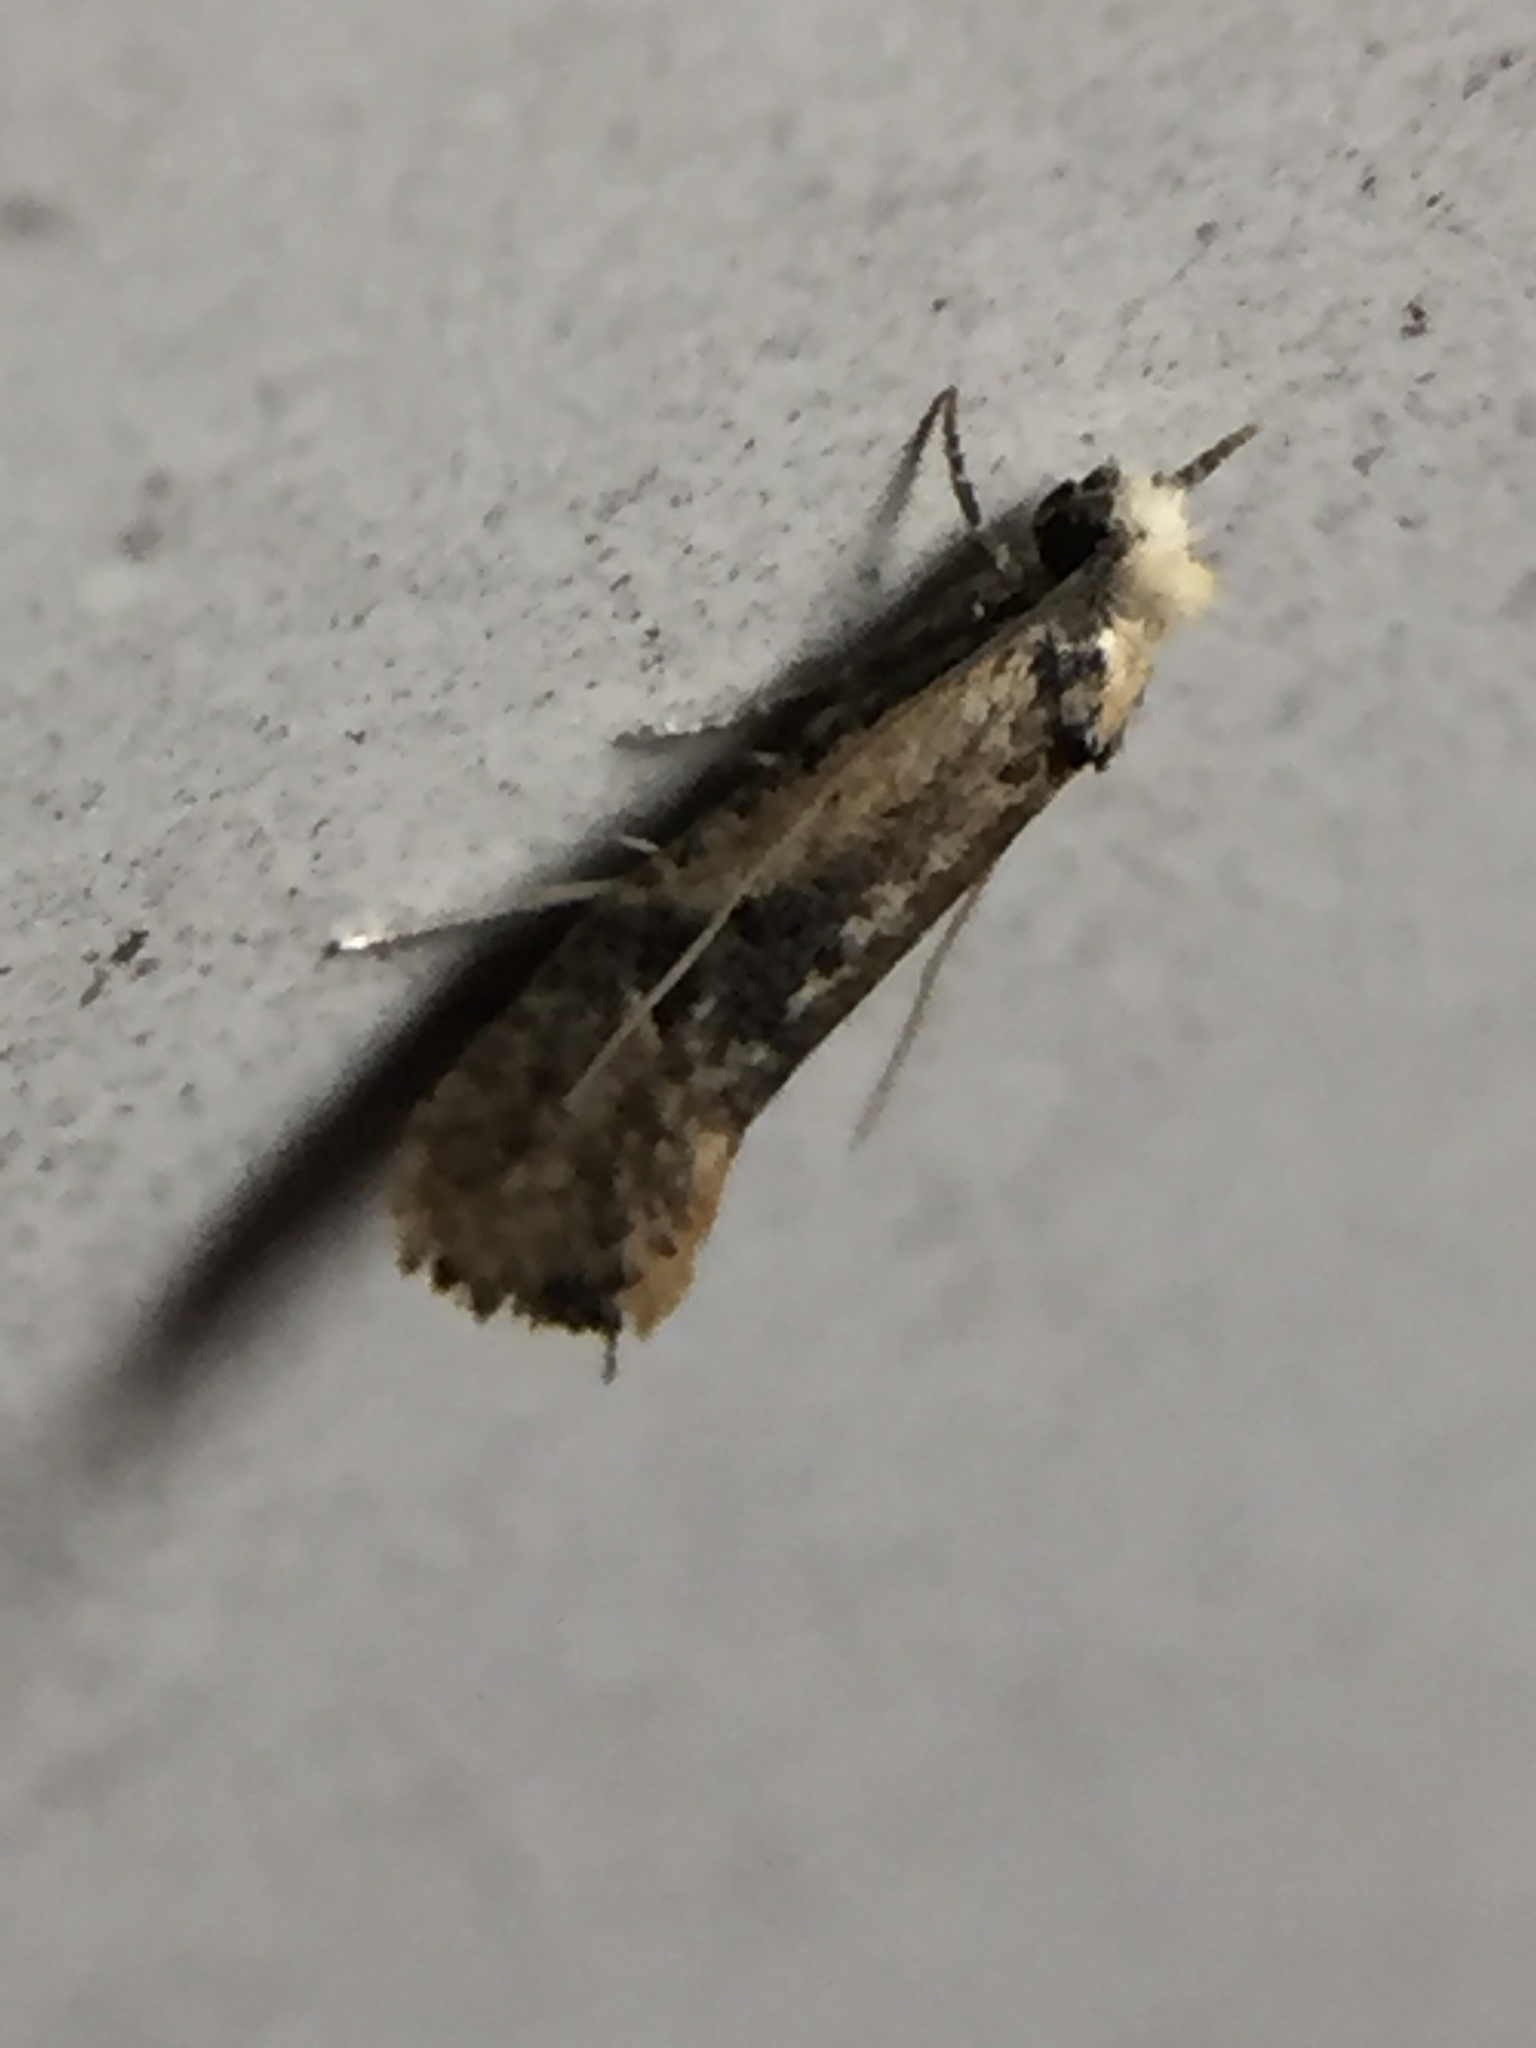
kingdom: Animalia
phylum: Arthropoda
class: Insecta
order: Lepidoptera
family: Tineidae
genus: Monopis
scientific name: Monopis argillacea
